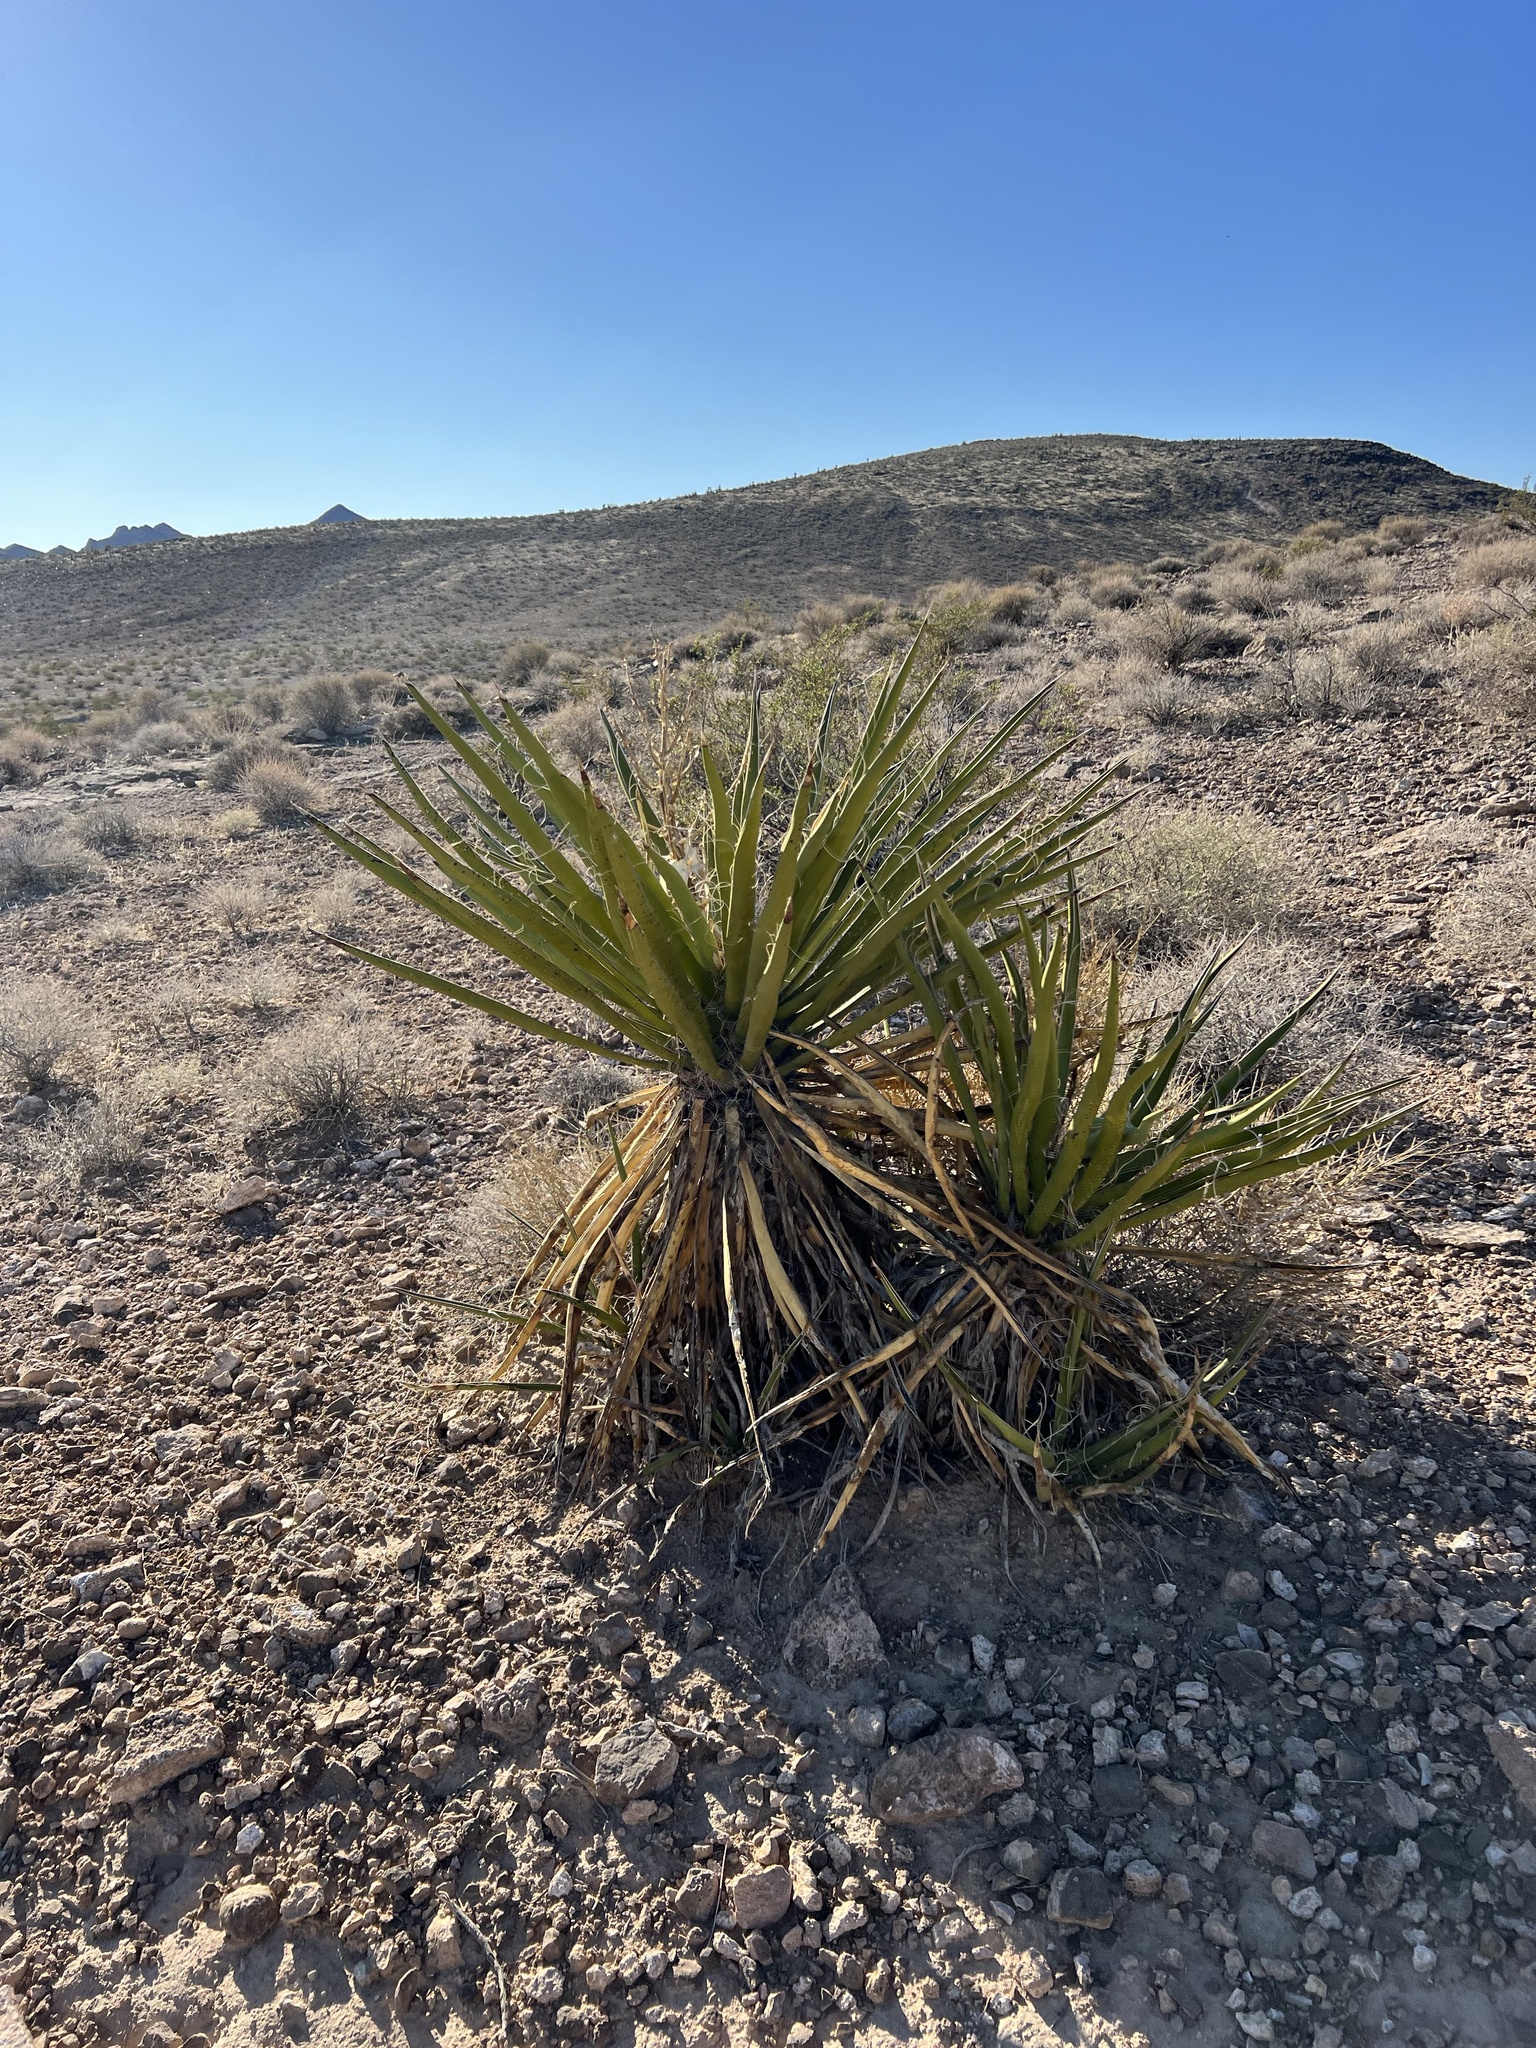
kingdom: Plantae
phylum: Tracheophyta
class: Liliopsida
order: Asparagales
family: Asparagaceae
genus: Yucca
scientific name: Yucca schidigera
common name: Mojave yucca
